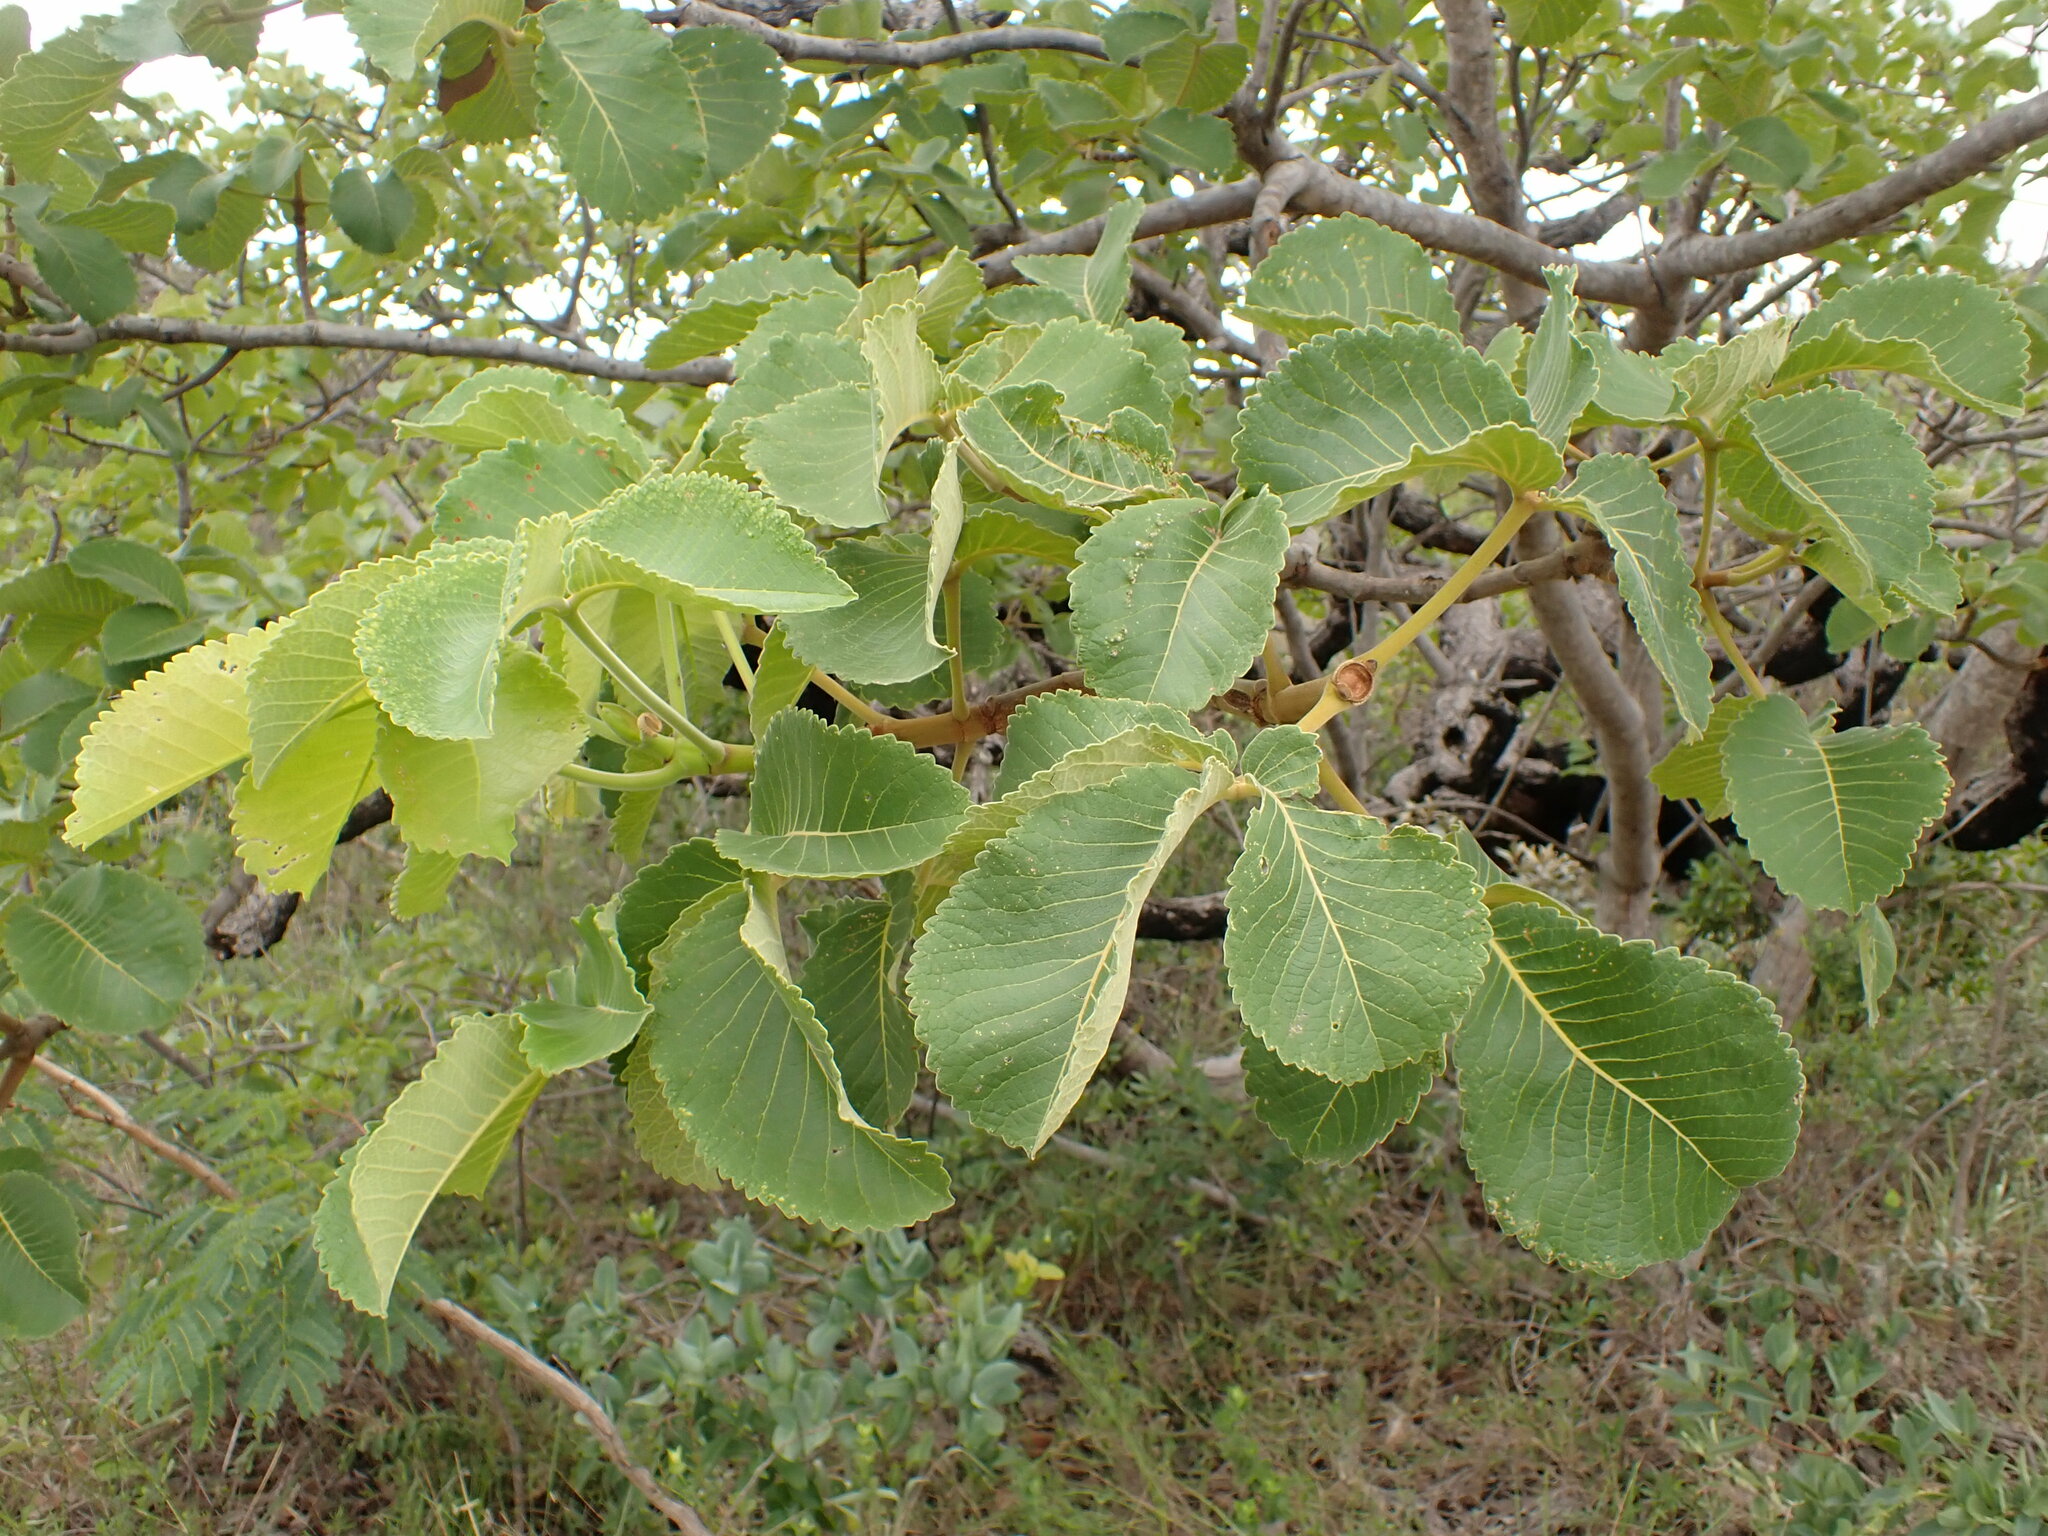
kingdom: Plantae
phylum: Tracheophyta
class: Magnoliopsida
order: Malpighiales
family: Caryocaraceae
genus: Caryocar
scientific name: Caryocar brasiliense
